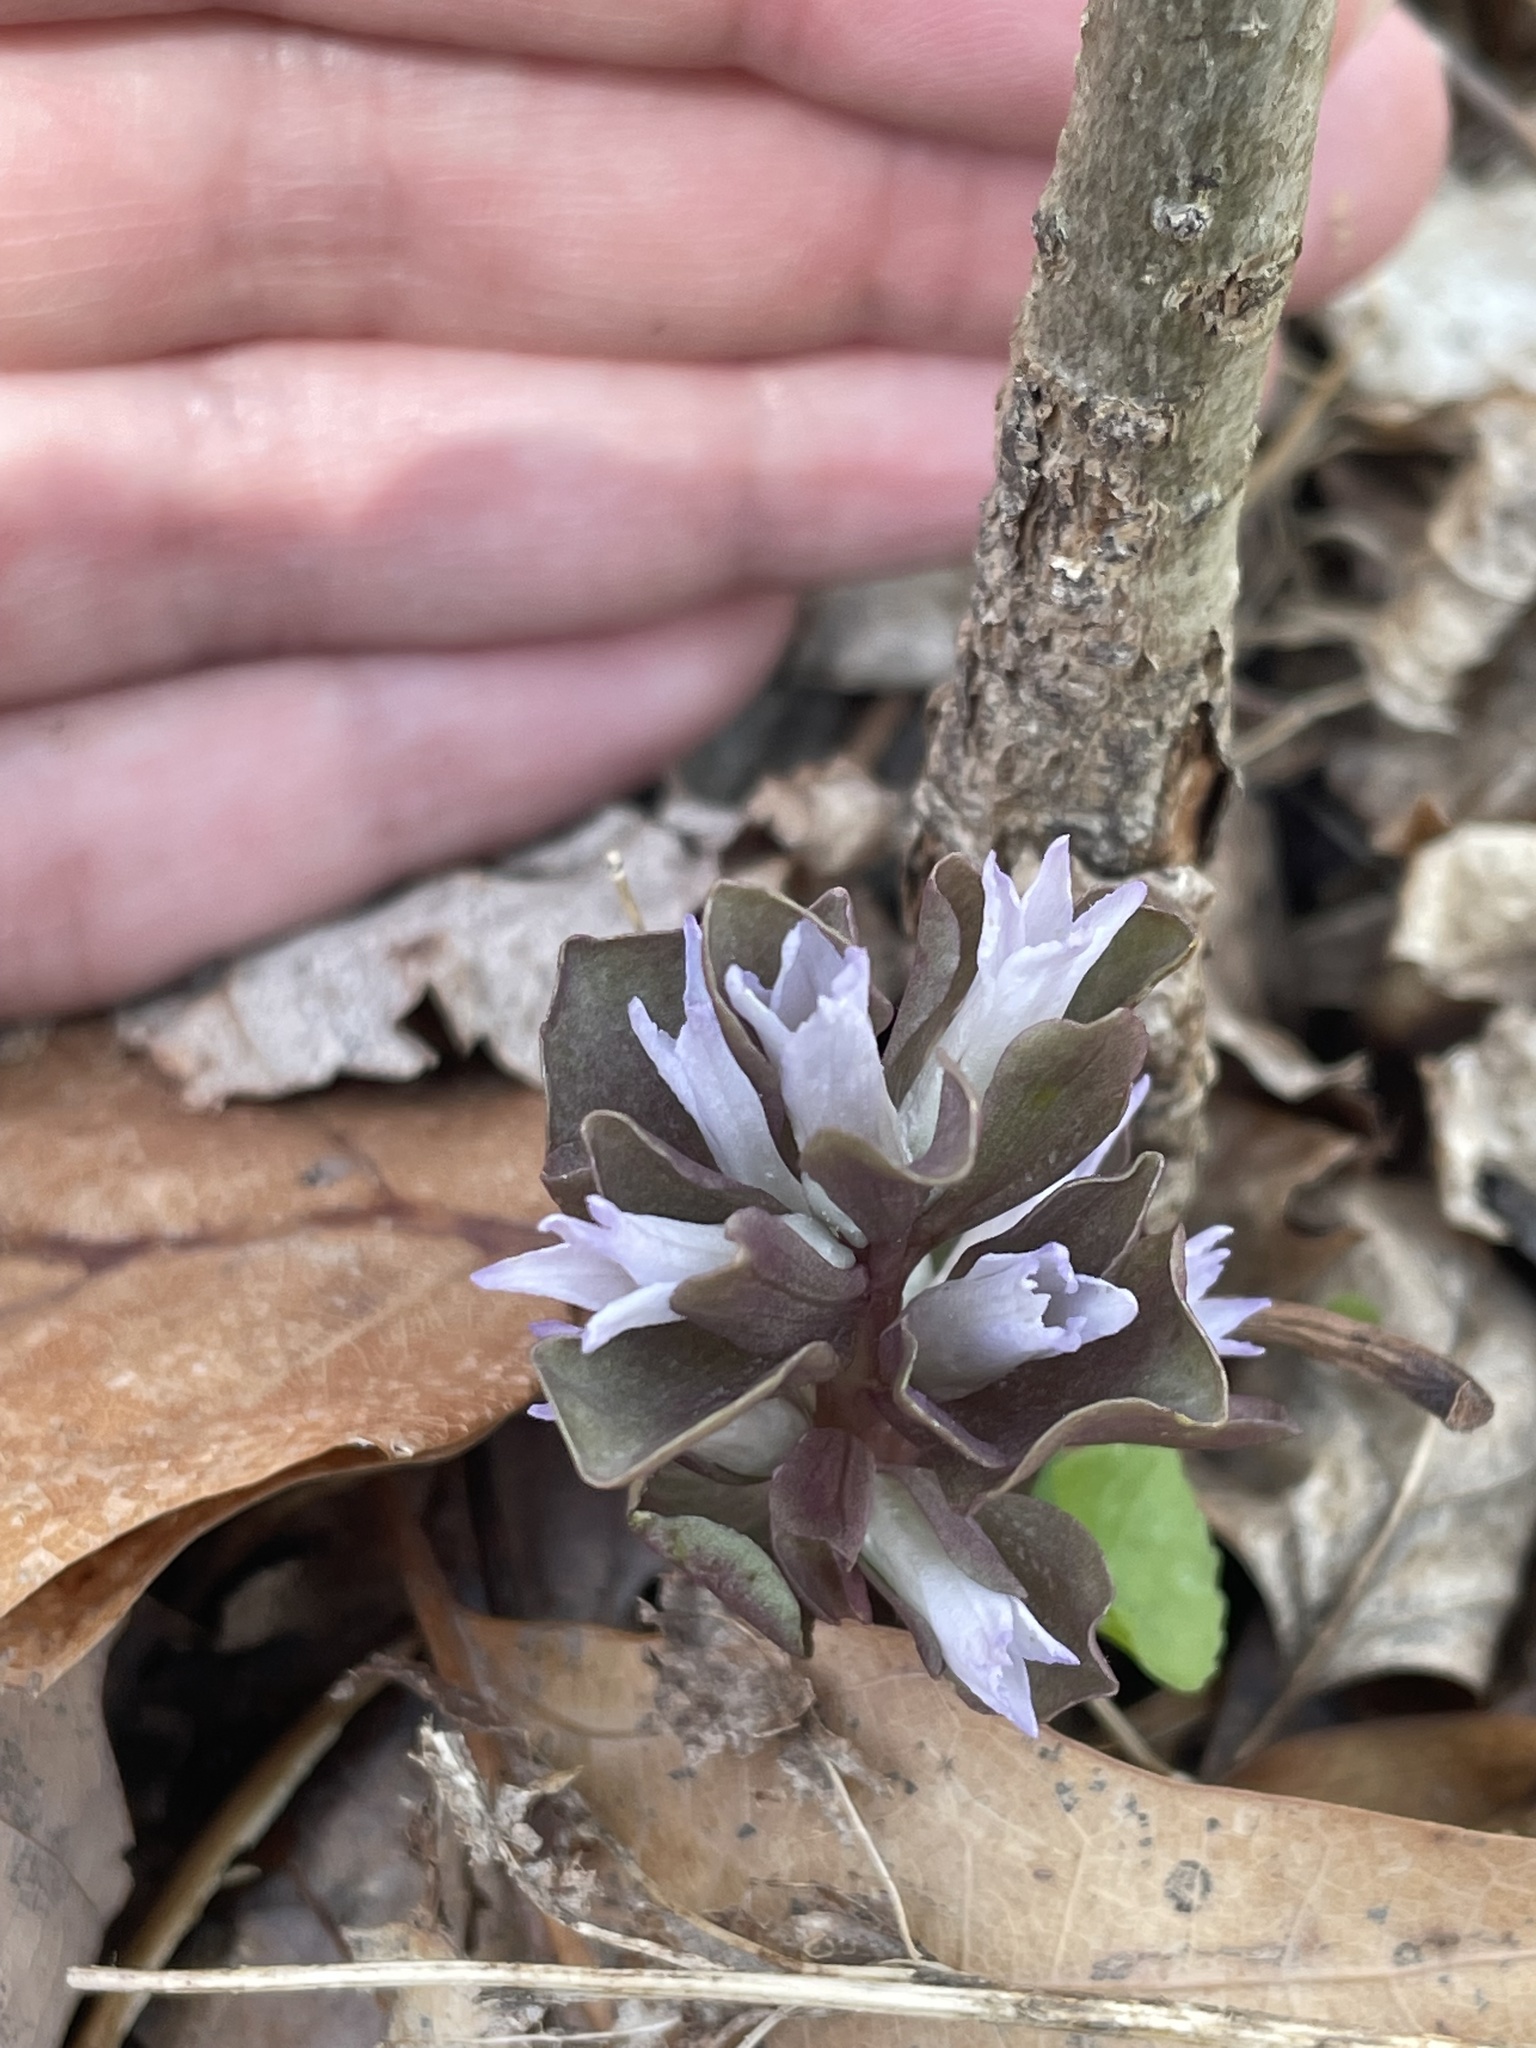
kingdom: Plantae
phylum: Tracheophyta
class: Magnoliopsida
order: Gentianales
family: Gentianaceae
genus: Obolaria
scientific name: Obolaria virginica
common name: Pennywort
